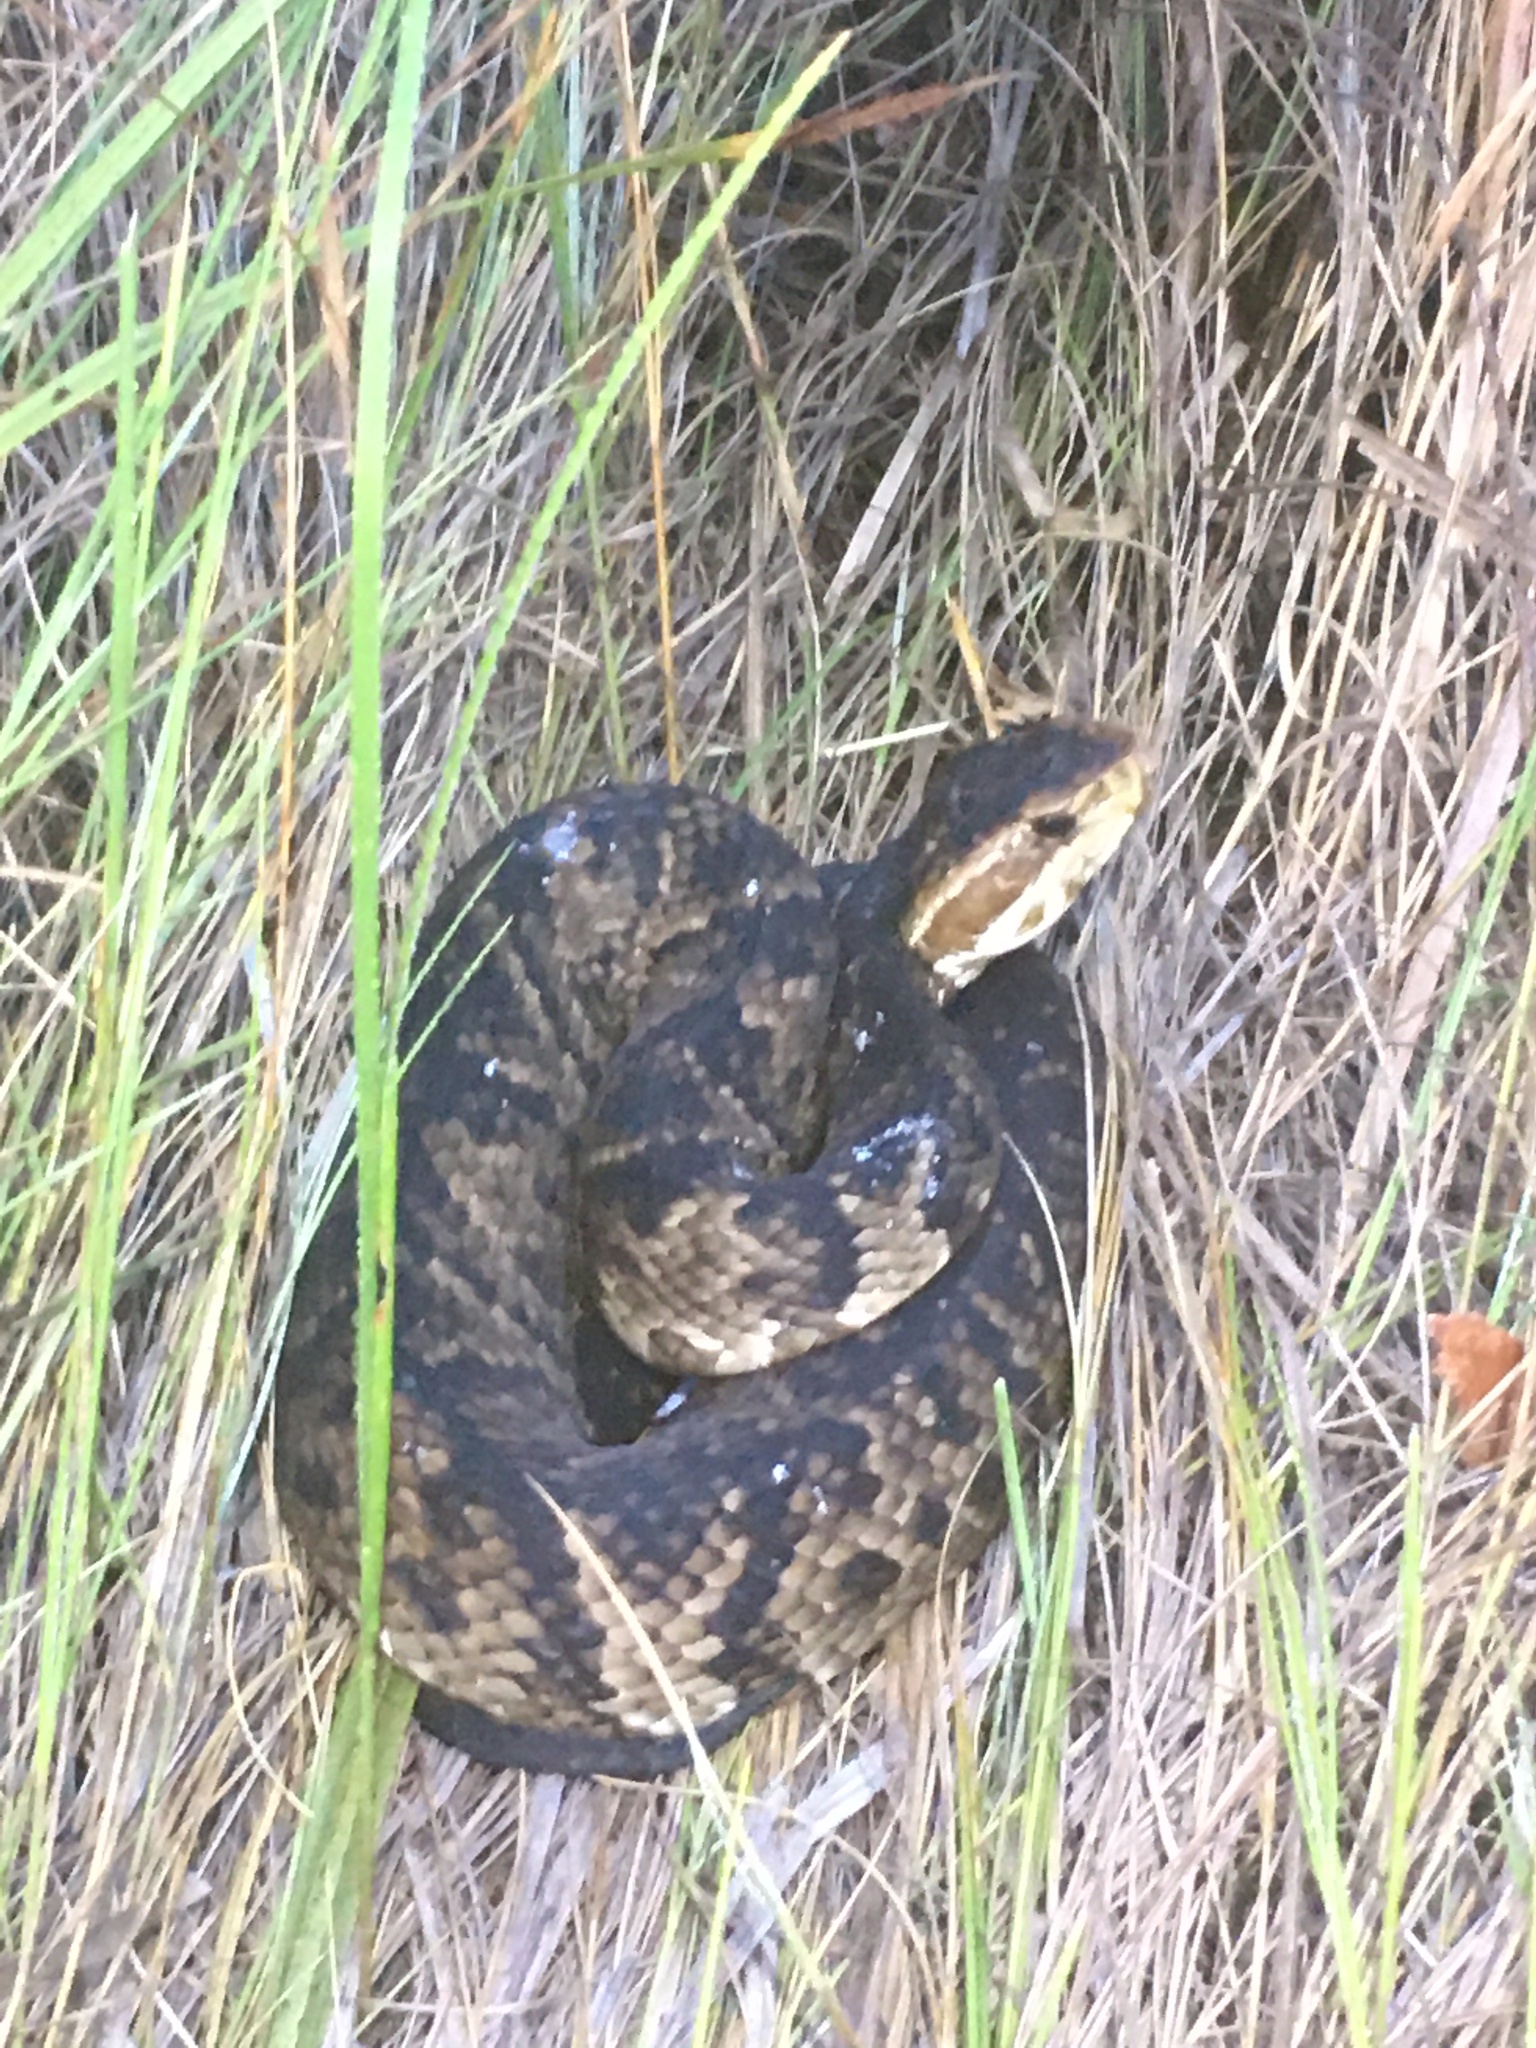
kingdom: Animalia
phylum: Chordata
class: Squamata
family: Viperidae
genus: Agkistrodon
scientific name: Agkistrodon conanti
